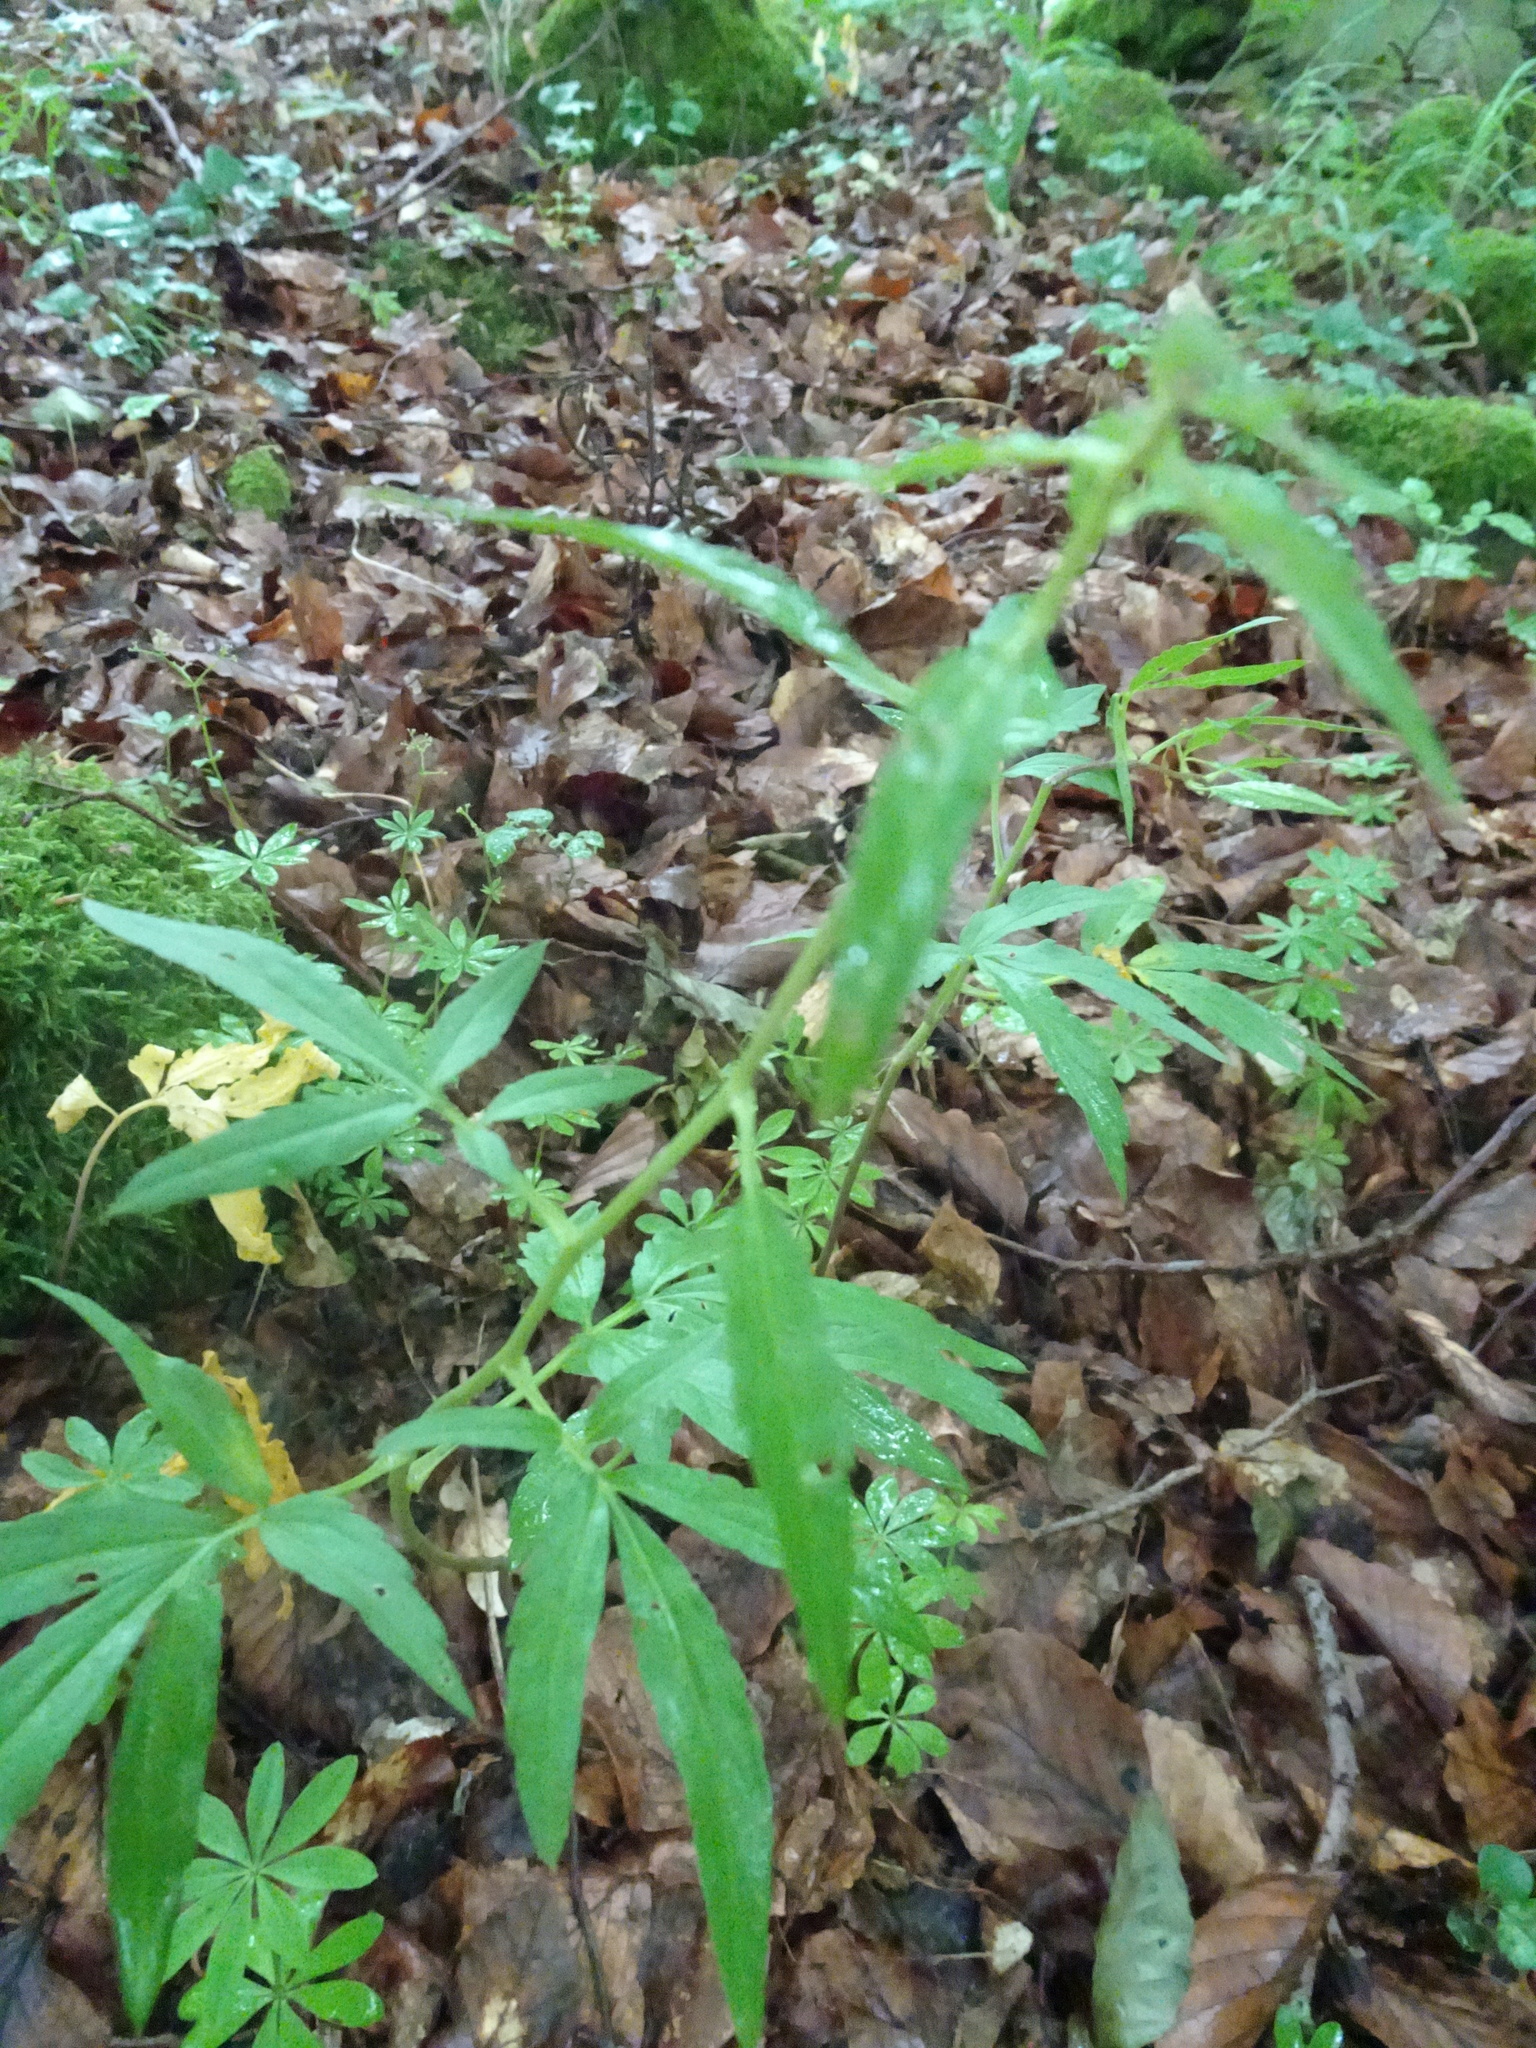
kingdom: Plantae
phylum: Tracheophyta
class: Magnoliopsida
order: Brassicales
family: Brassicaceae
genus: Cardamine
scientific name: Cardamine bulbifera
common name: Coralroot bittercress
